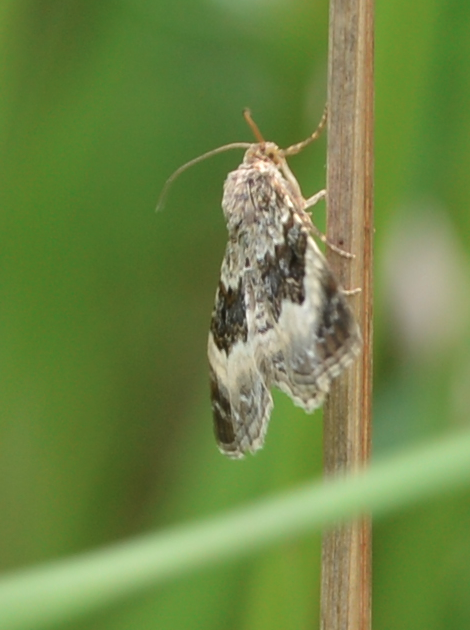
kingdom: Animalia
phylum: Arthropoda
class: Insecta
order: Lepidoptera
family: Geometridae
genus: Epirrhoe
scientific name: Epirrhoe alternata
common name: Common carpet
